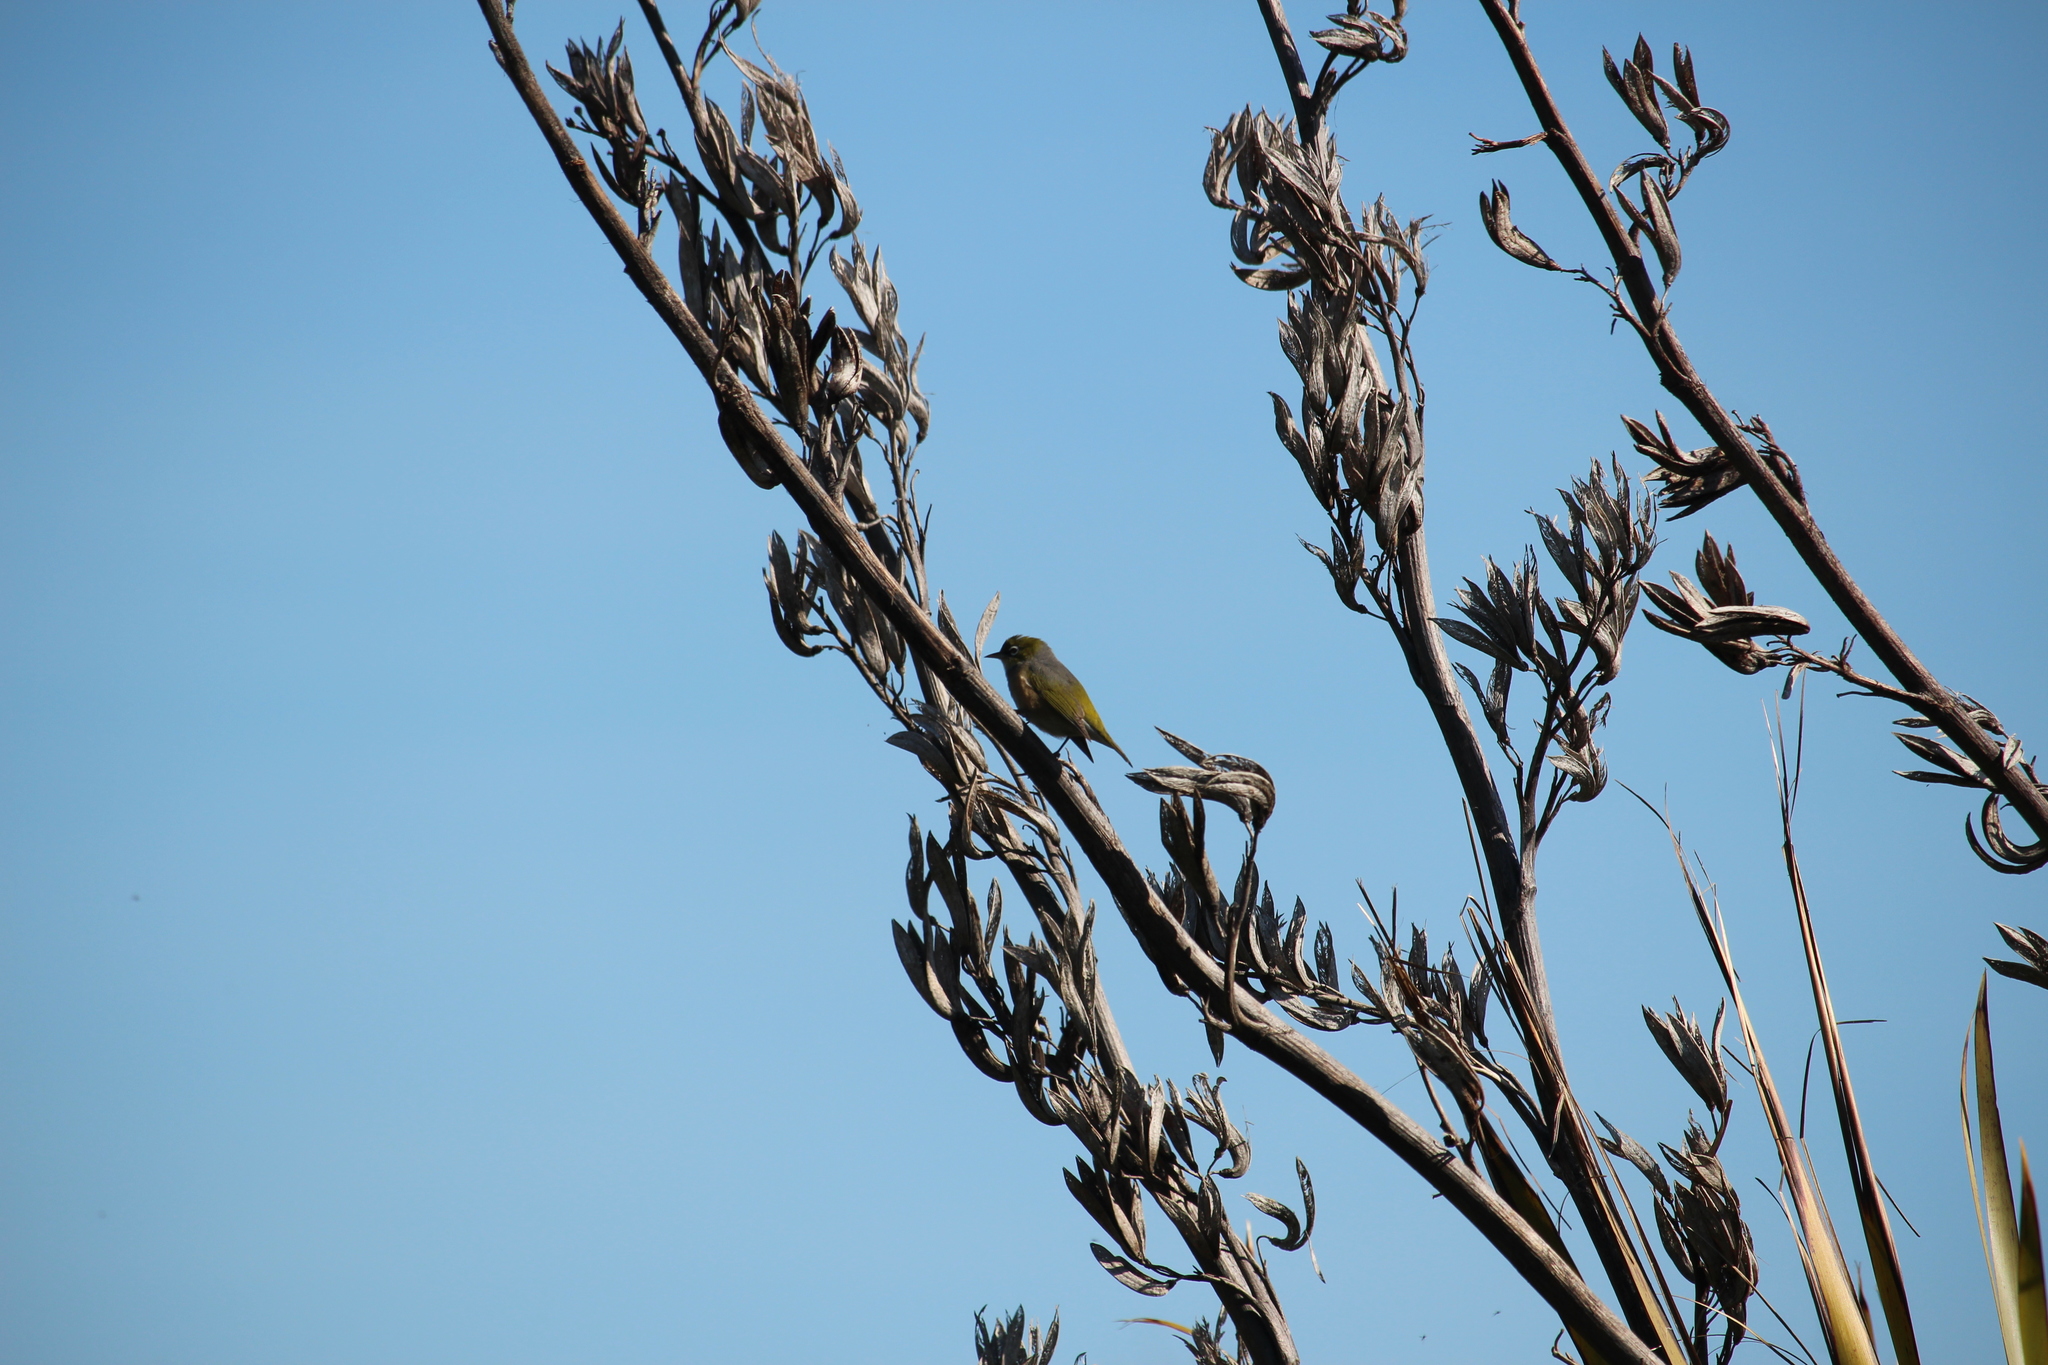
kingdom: Plantae
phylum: Tracheophyta
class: Liliopsida
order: Asparagales
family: Asphodelaceae
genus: Phormium
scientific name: Phormium tenax
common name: New zealand flax
